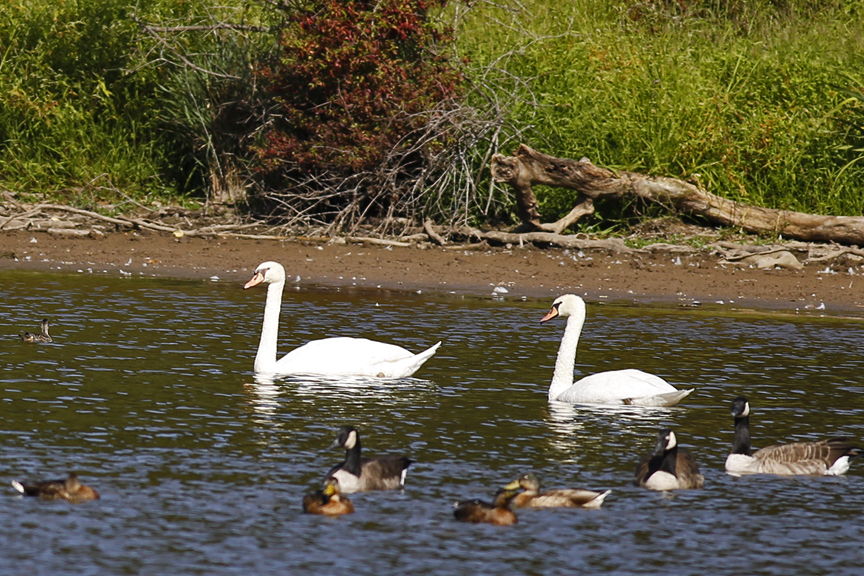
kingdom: Animalia
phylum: Chordata
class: Aves
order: Anseriformes
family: Anatidae
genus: Cygnus
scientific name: Cygnus olor
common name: Mute swan
